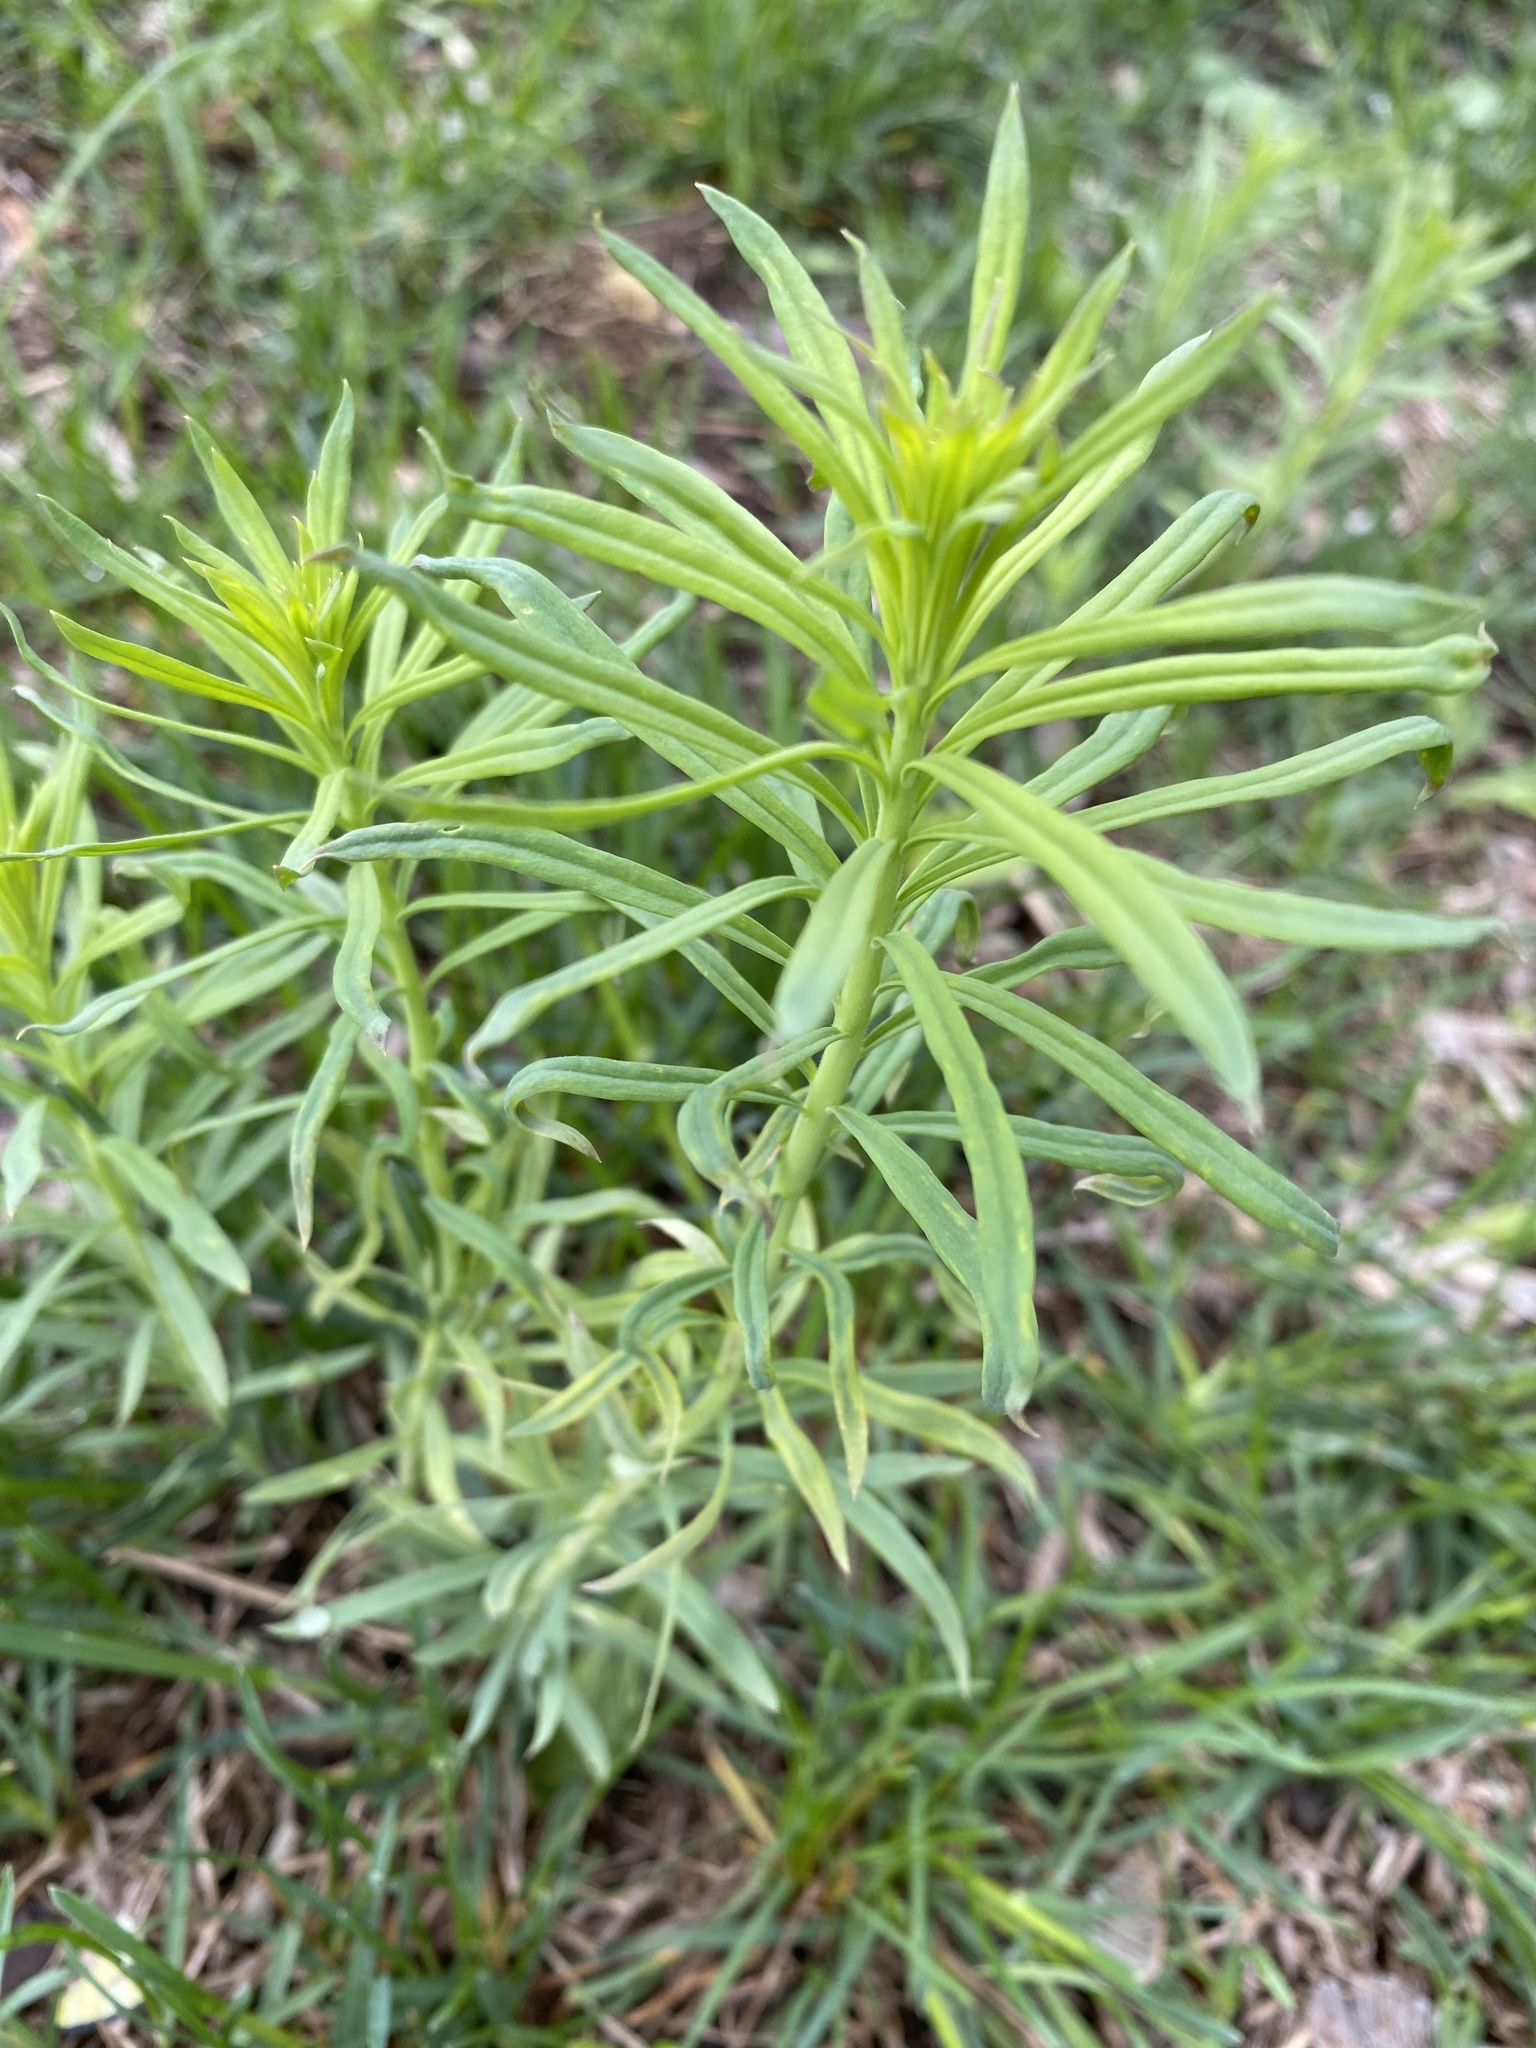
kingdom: Plantae
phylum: Tracheophyta
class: Magnoliopsida
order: Myrtales
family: Onagraceae
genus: Chamaenerion
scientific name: Chamaenerion angustifolium
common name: Fireweed
